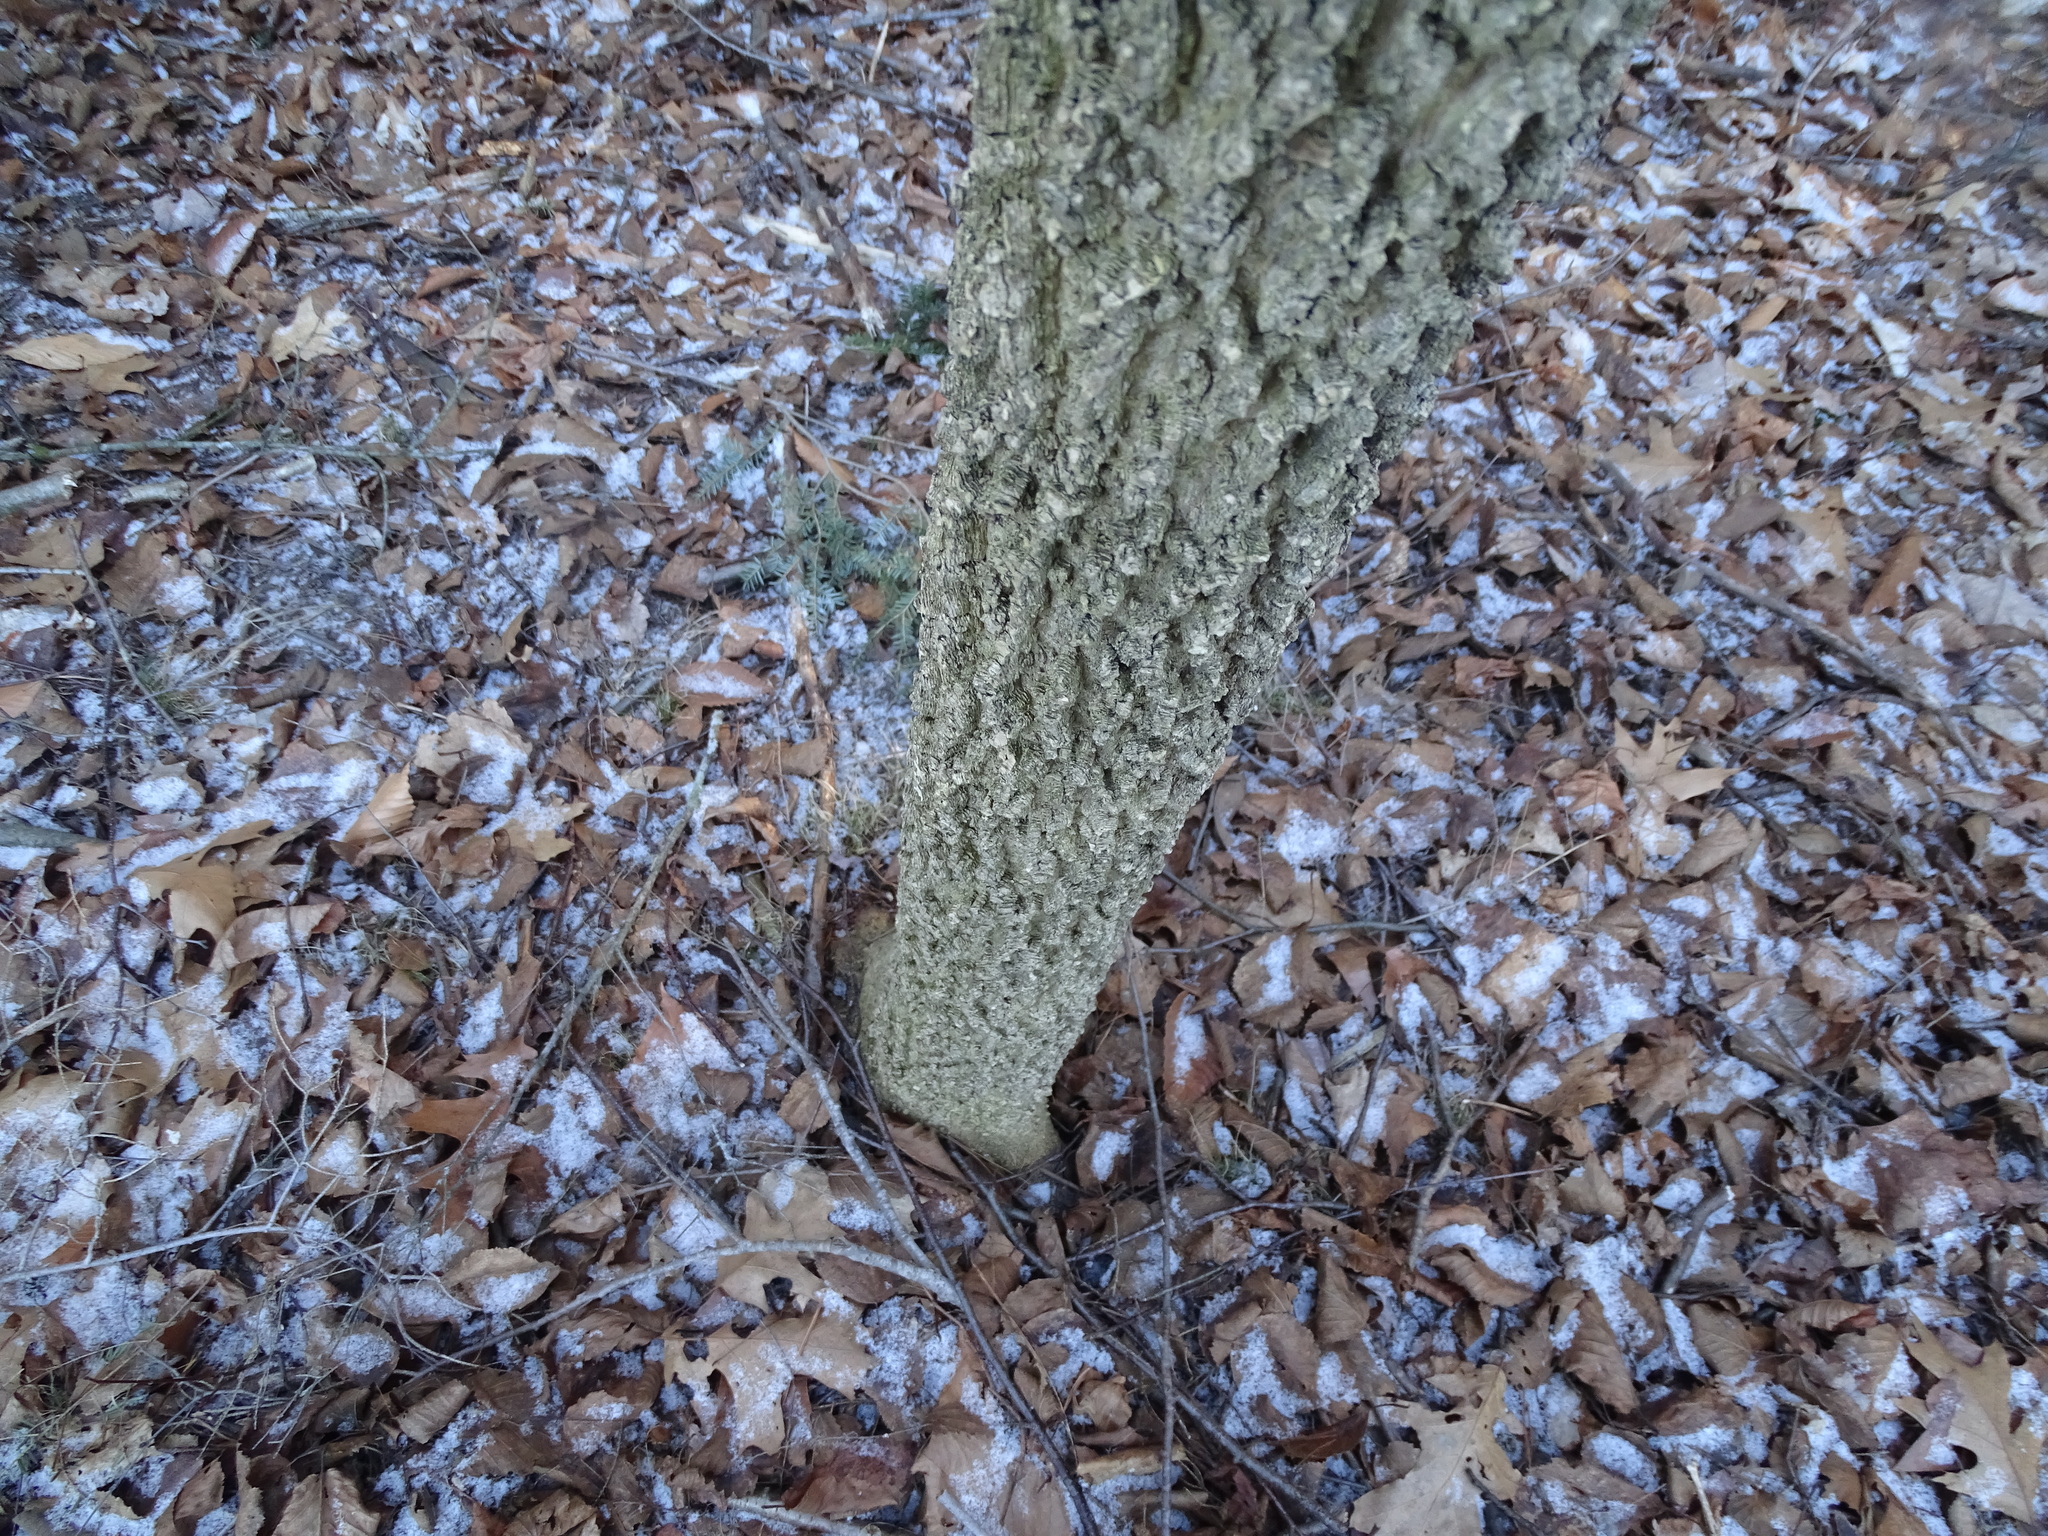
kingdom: Plantae
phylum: Tracheophyta
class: Magnoliopsida
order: Rosales
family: Cannabaceae
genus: Celtis
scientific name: Celtis occidentalis
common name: Common hackberry
